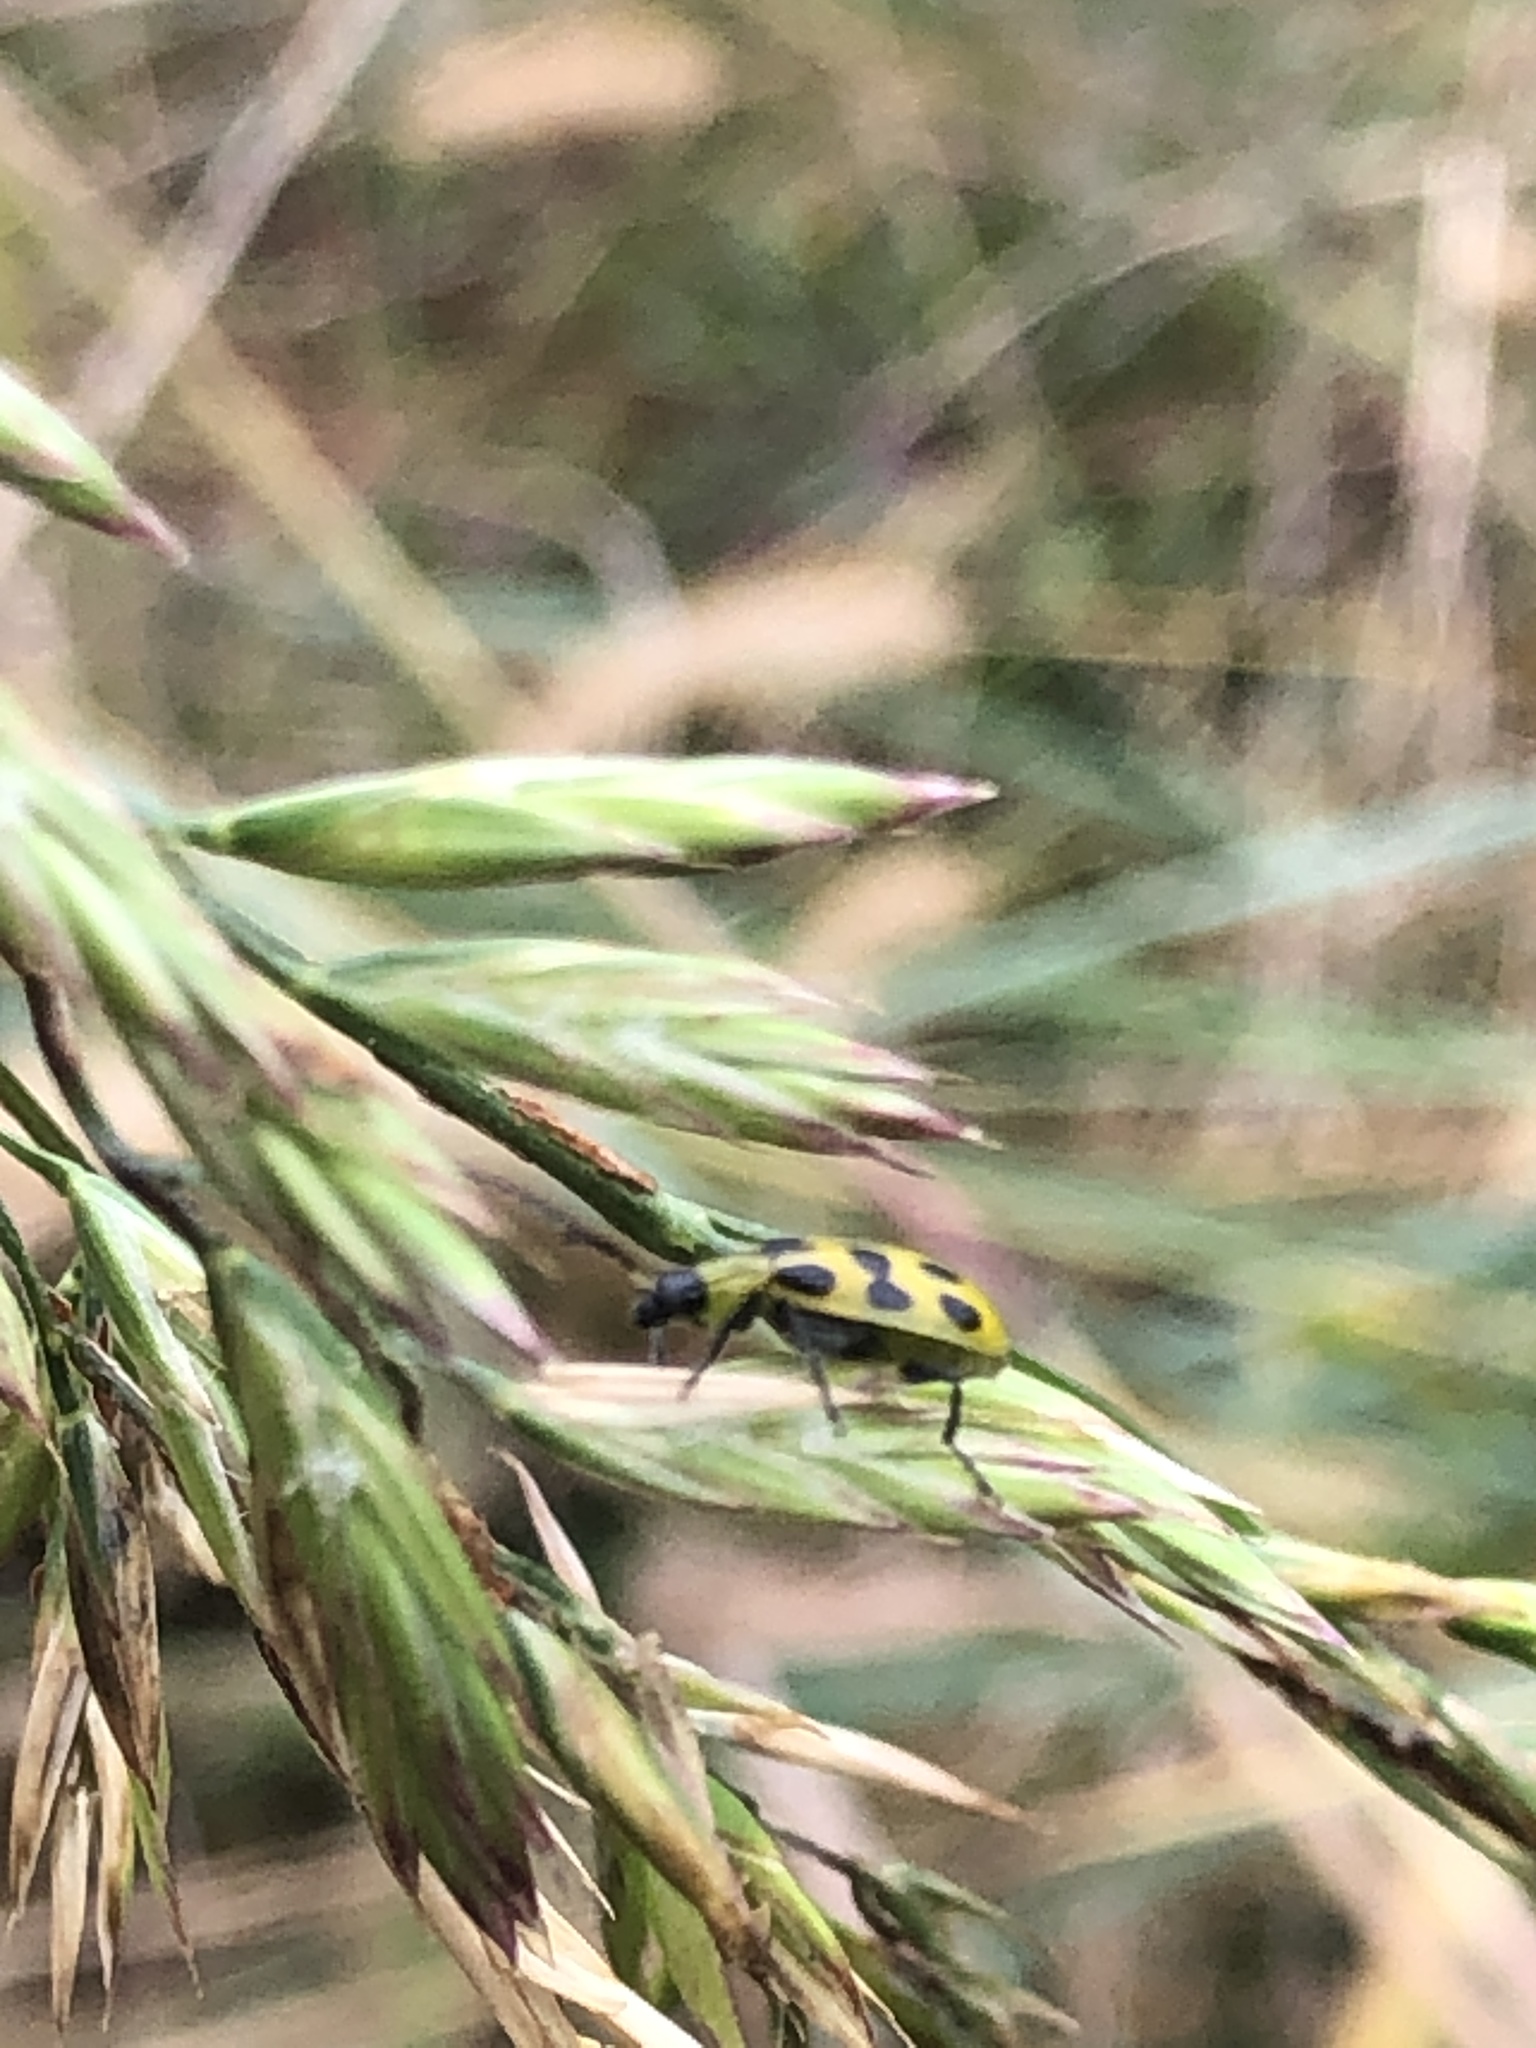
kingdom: Animalia
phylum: Arthropoda
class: Insecta
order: Coleoptera
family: Chrysomelidae
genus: Diabrotica
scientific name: Diabrotica undecimpunctata
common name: Spotted cucumber beetle
